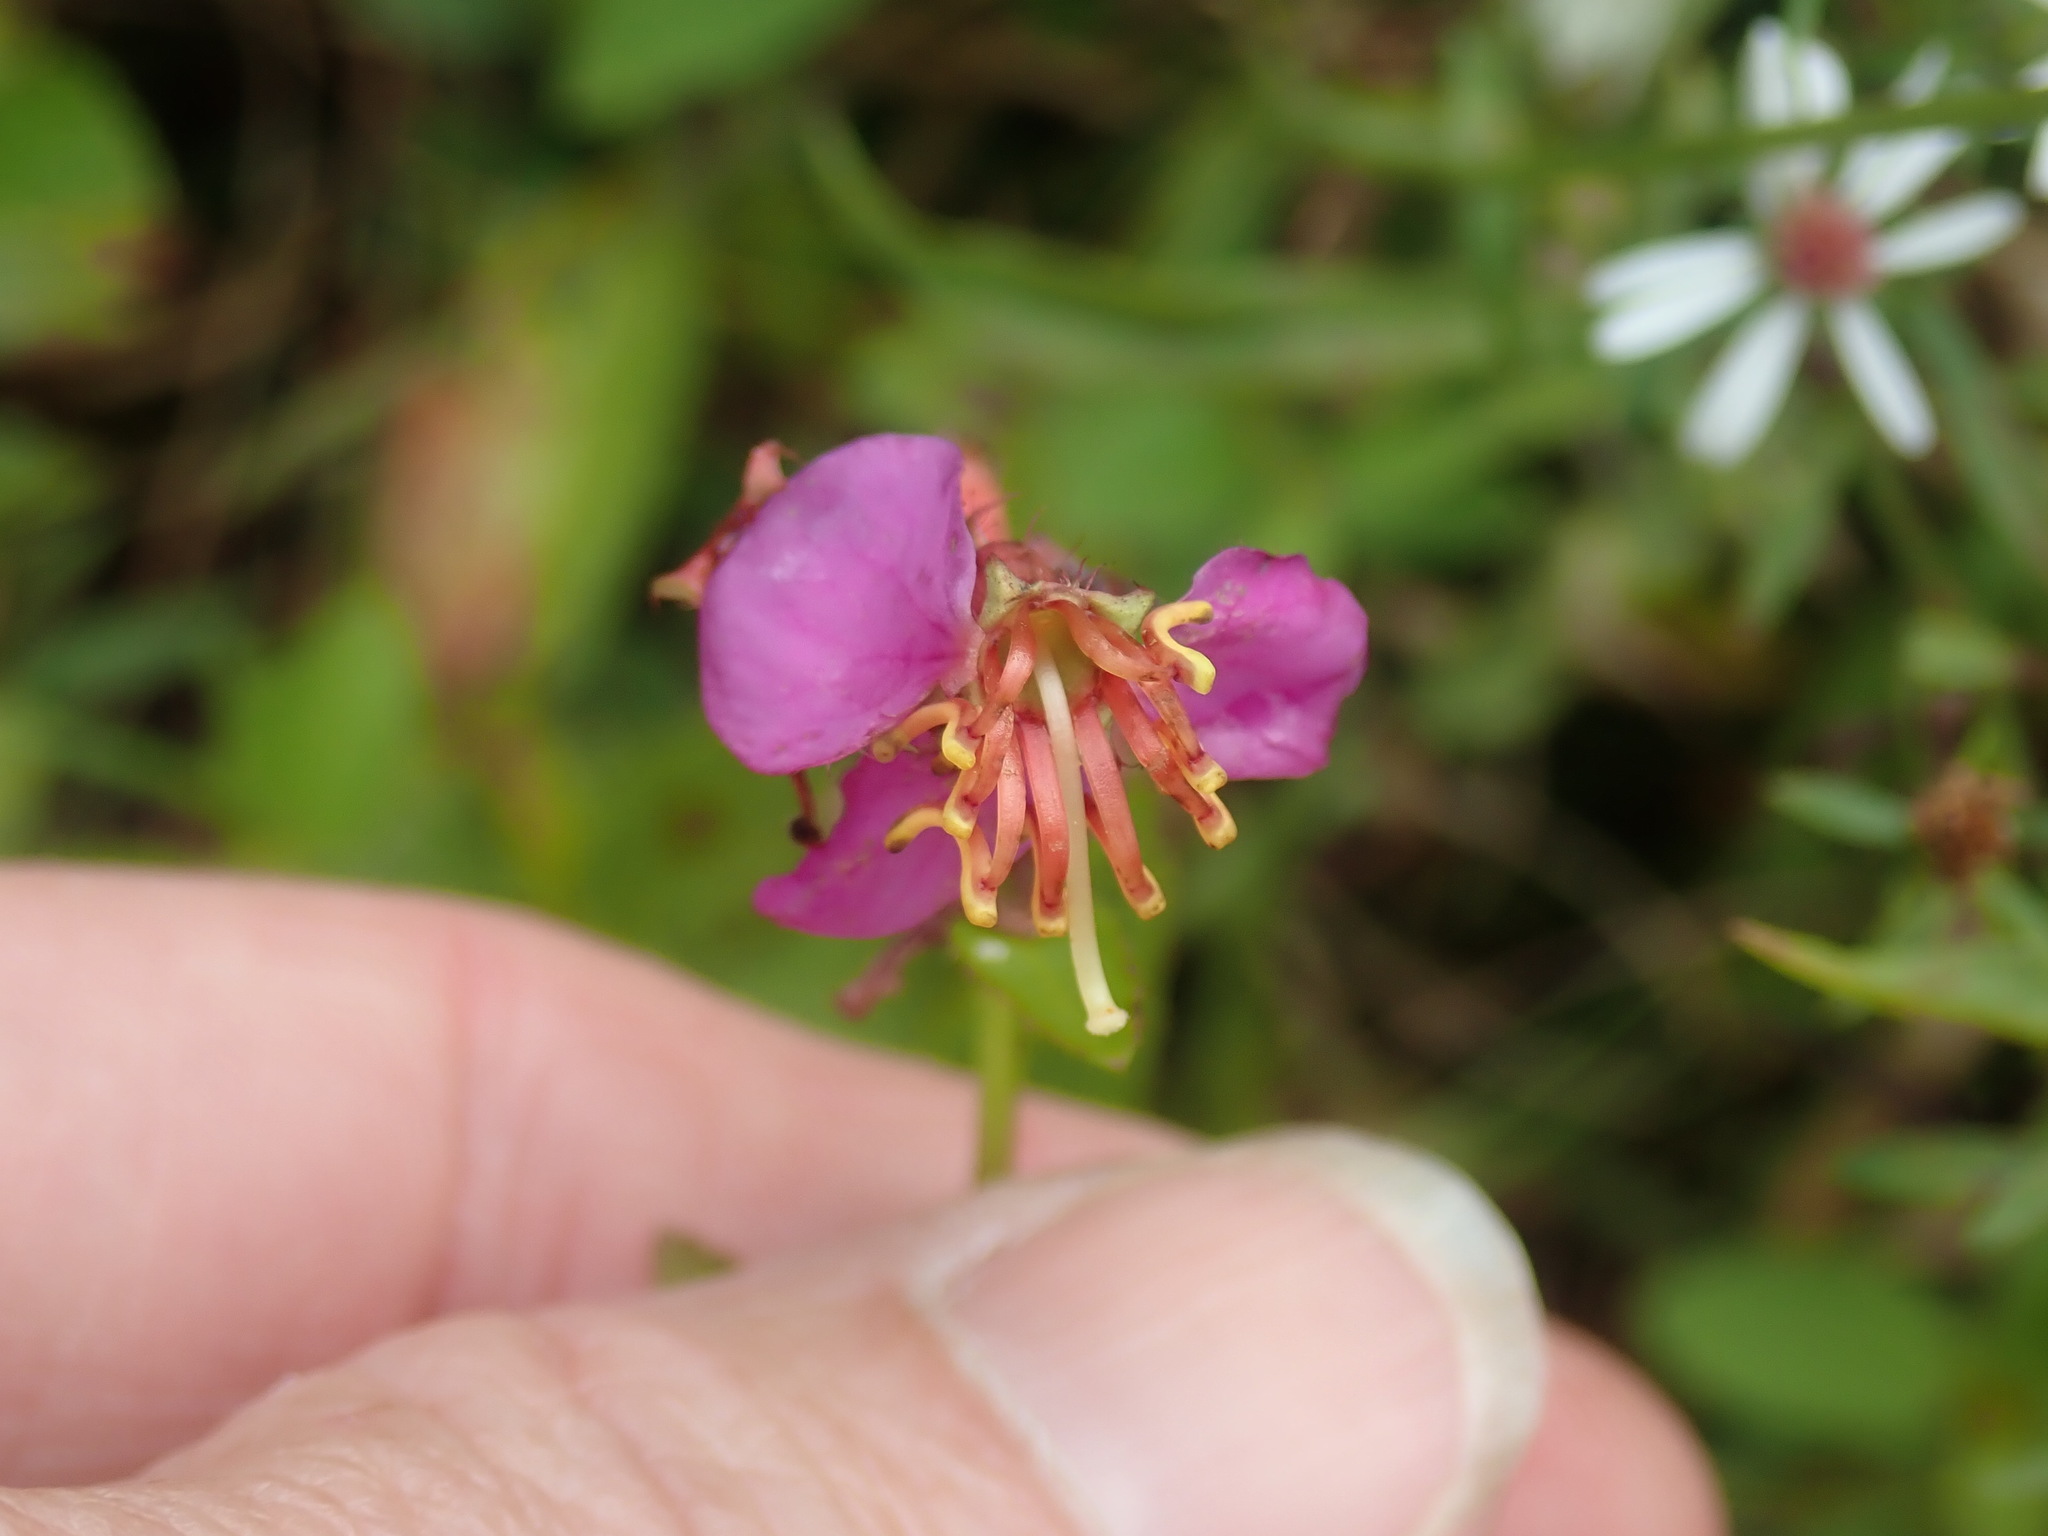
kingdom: Plantae
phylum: Tracheophyta
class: Magnoliopsida
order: Myrtales
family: Melastomataceae
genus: Rhexia
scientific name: Rhexia virginica
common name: Common meadow beauty
